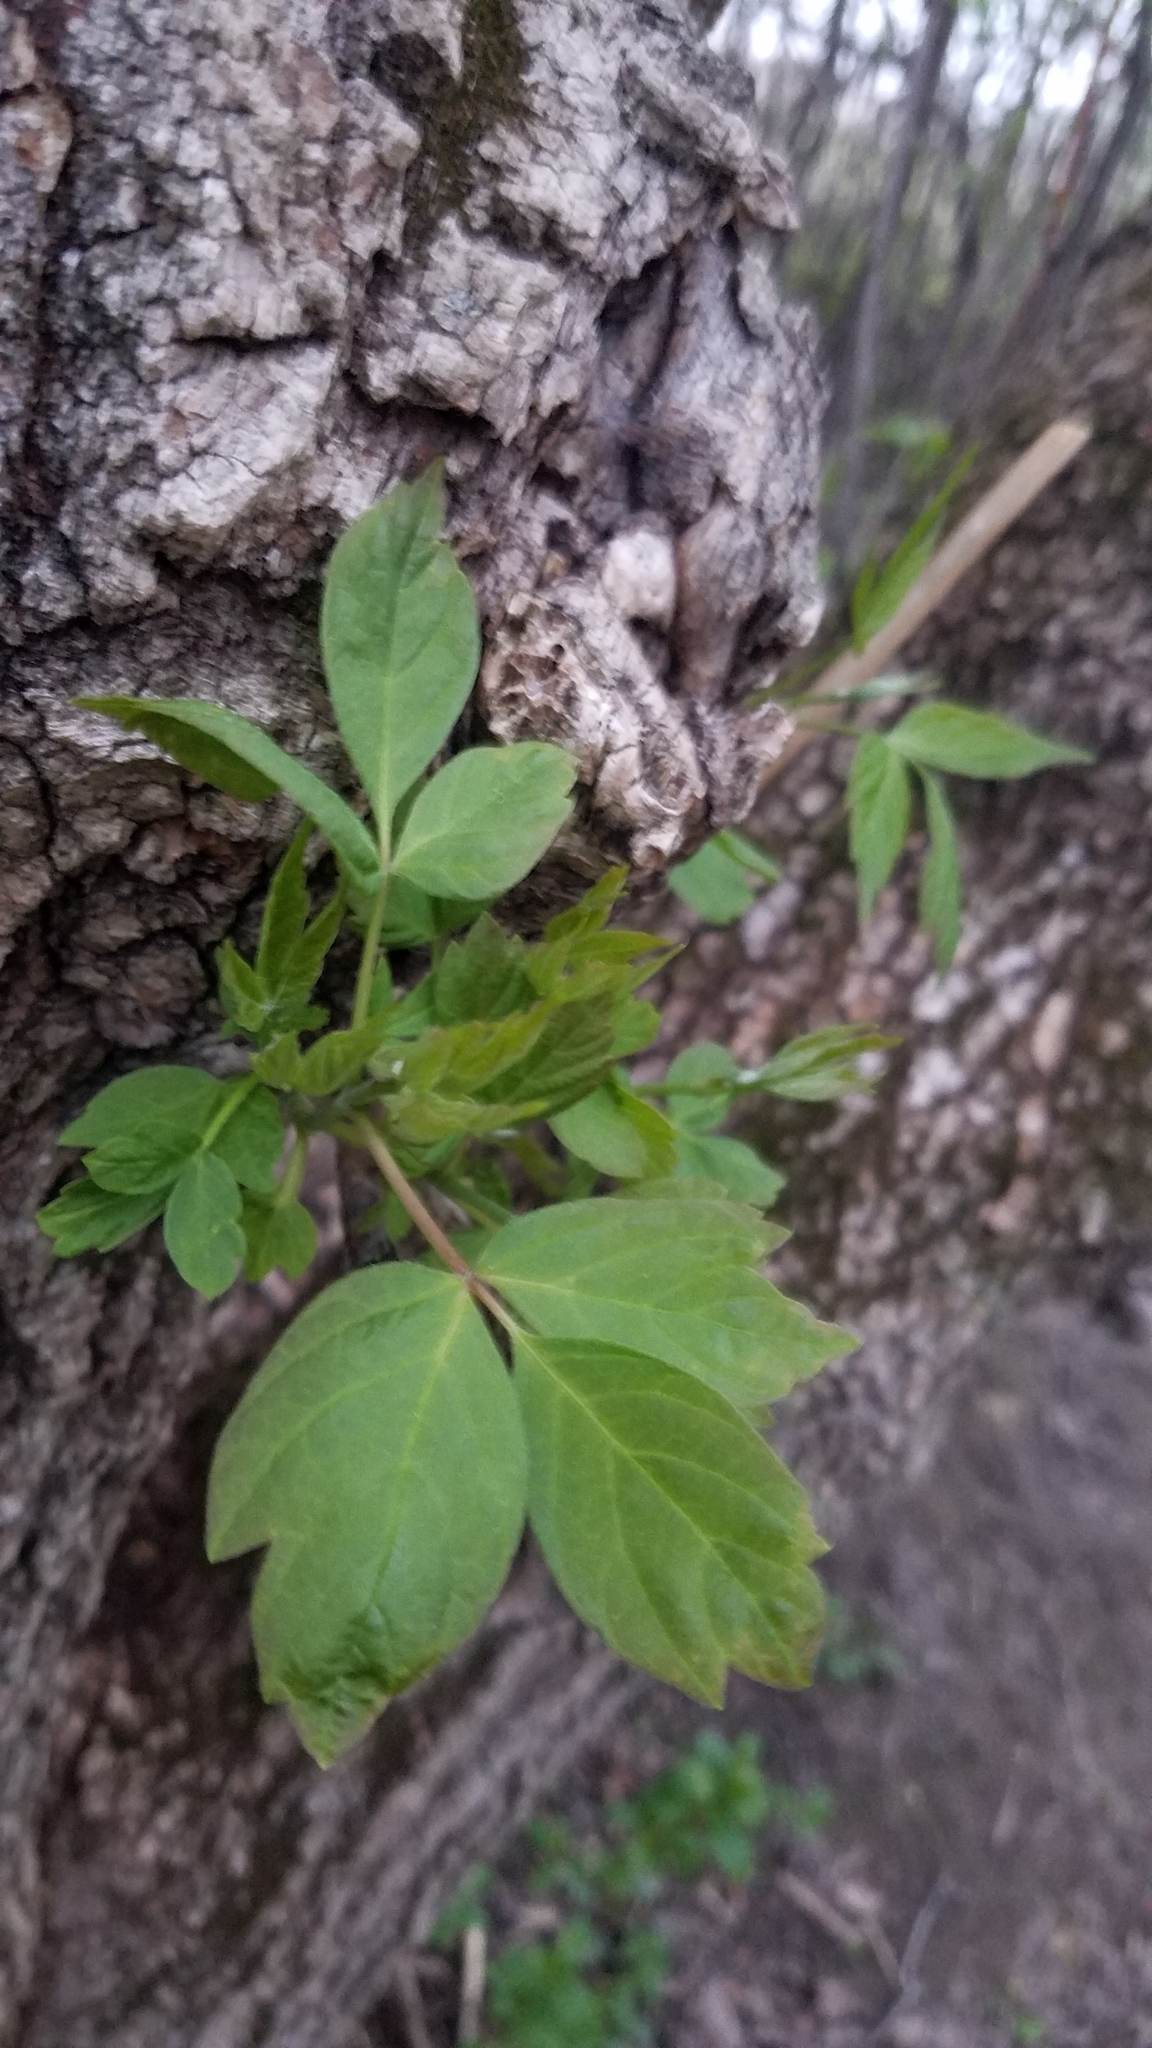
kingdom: Plantae
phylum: Tracheophyta
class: Magnoliopsida
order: Sapindales
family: Sapindaceae
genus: Acer
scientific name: Acer negundo
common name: Ashleaf maple
